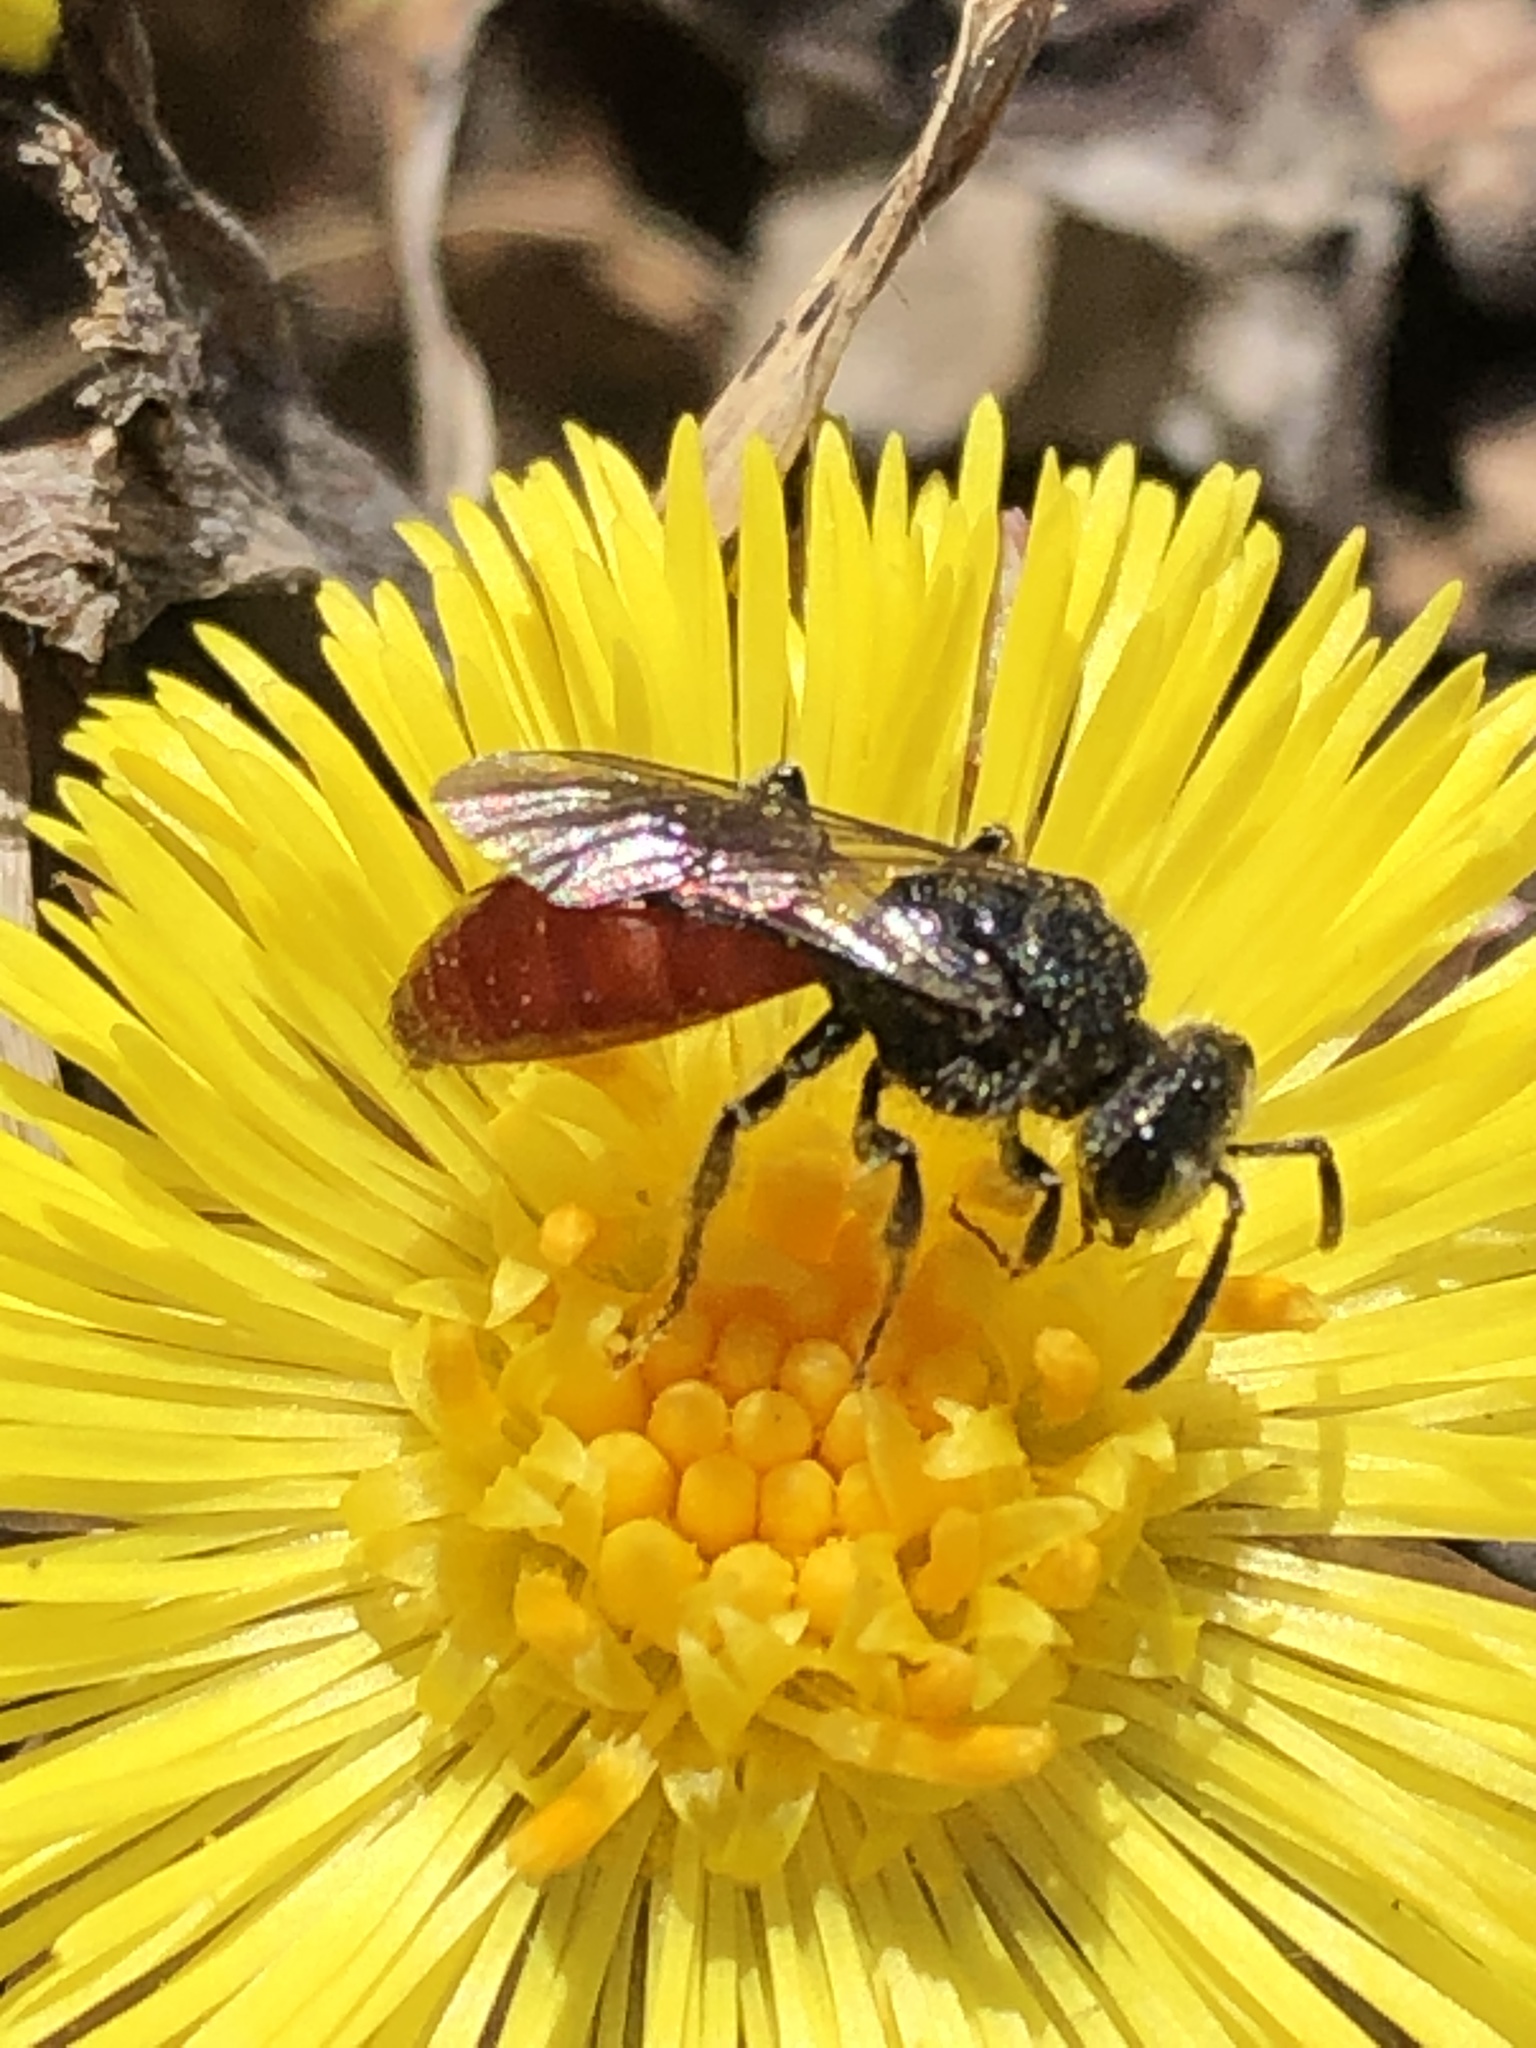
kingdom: Animalia
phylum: Arthropoda
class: Insecta
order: Hymenoptera
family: Halictidae
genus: Sphecodes
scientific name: Sphecodes ranunculi
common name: Buttercup cuckoo sweat bee
